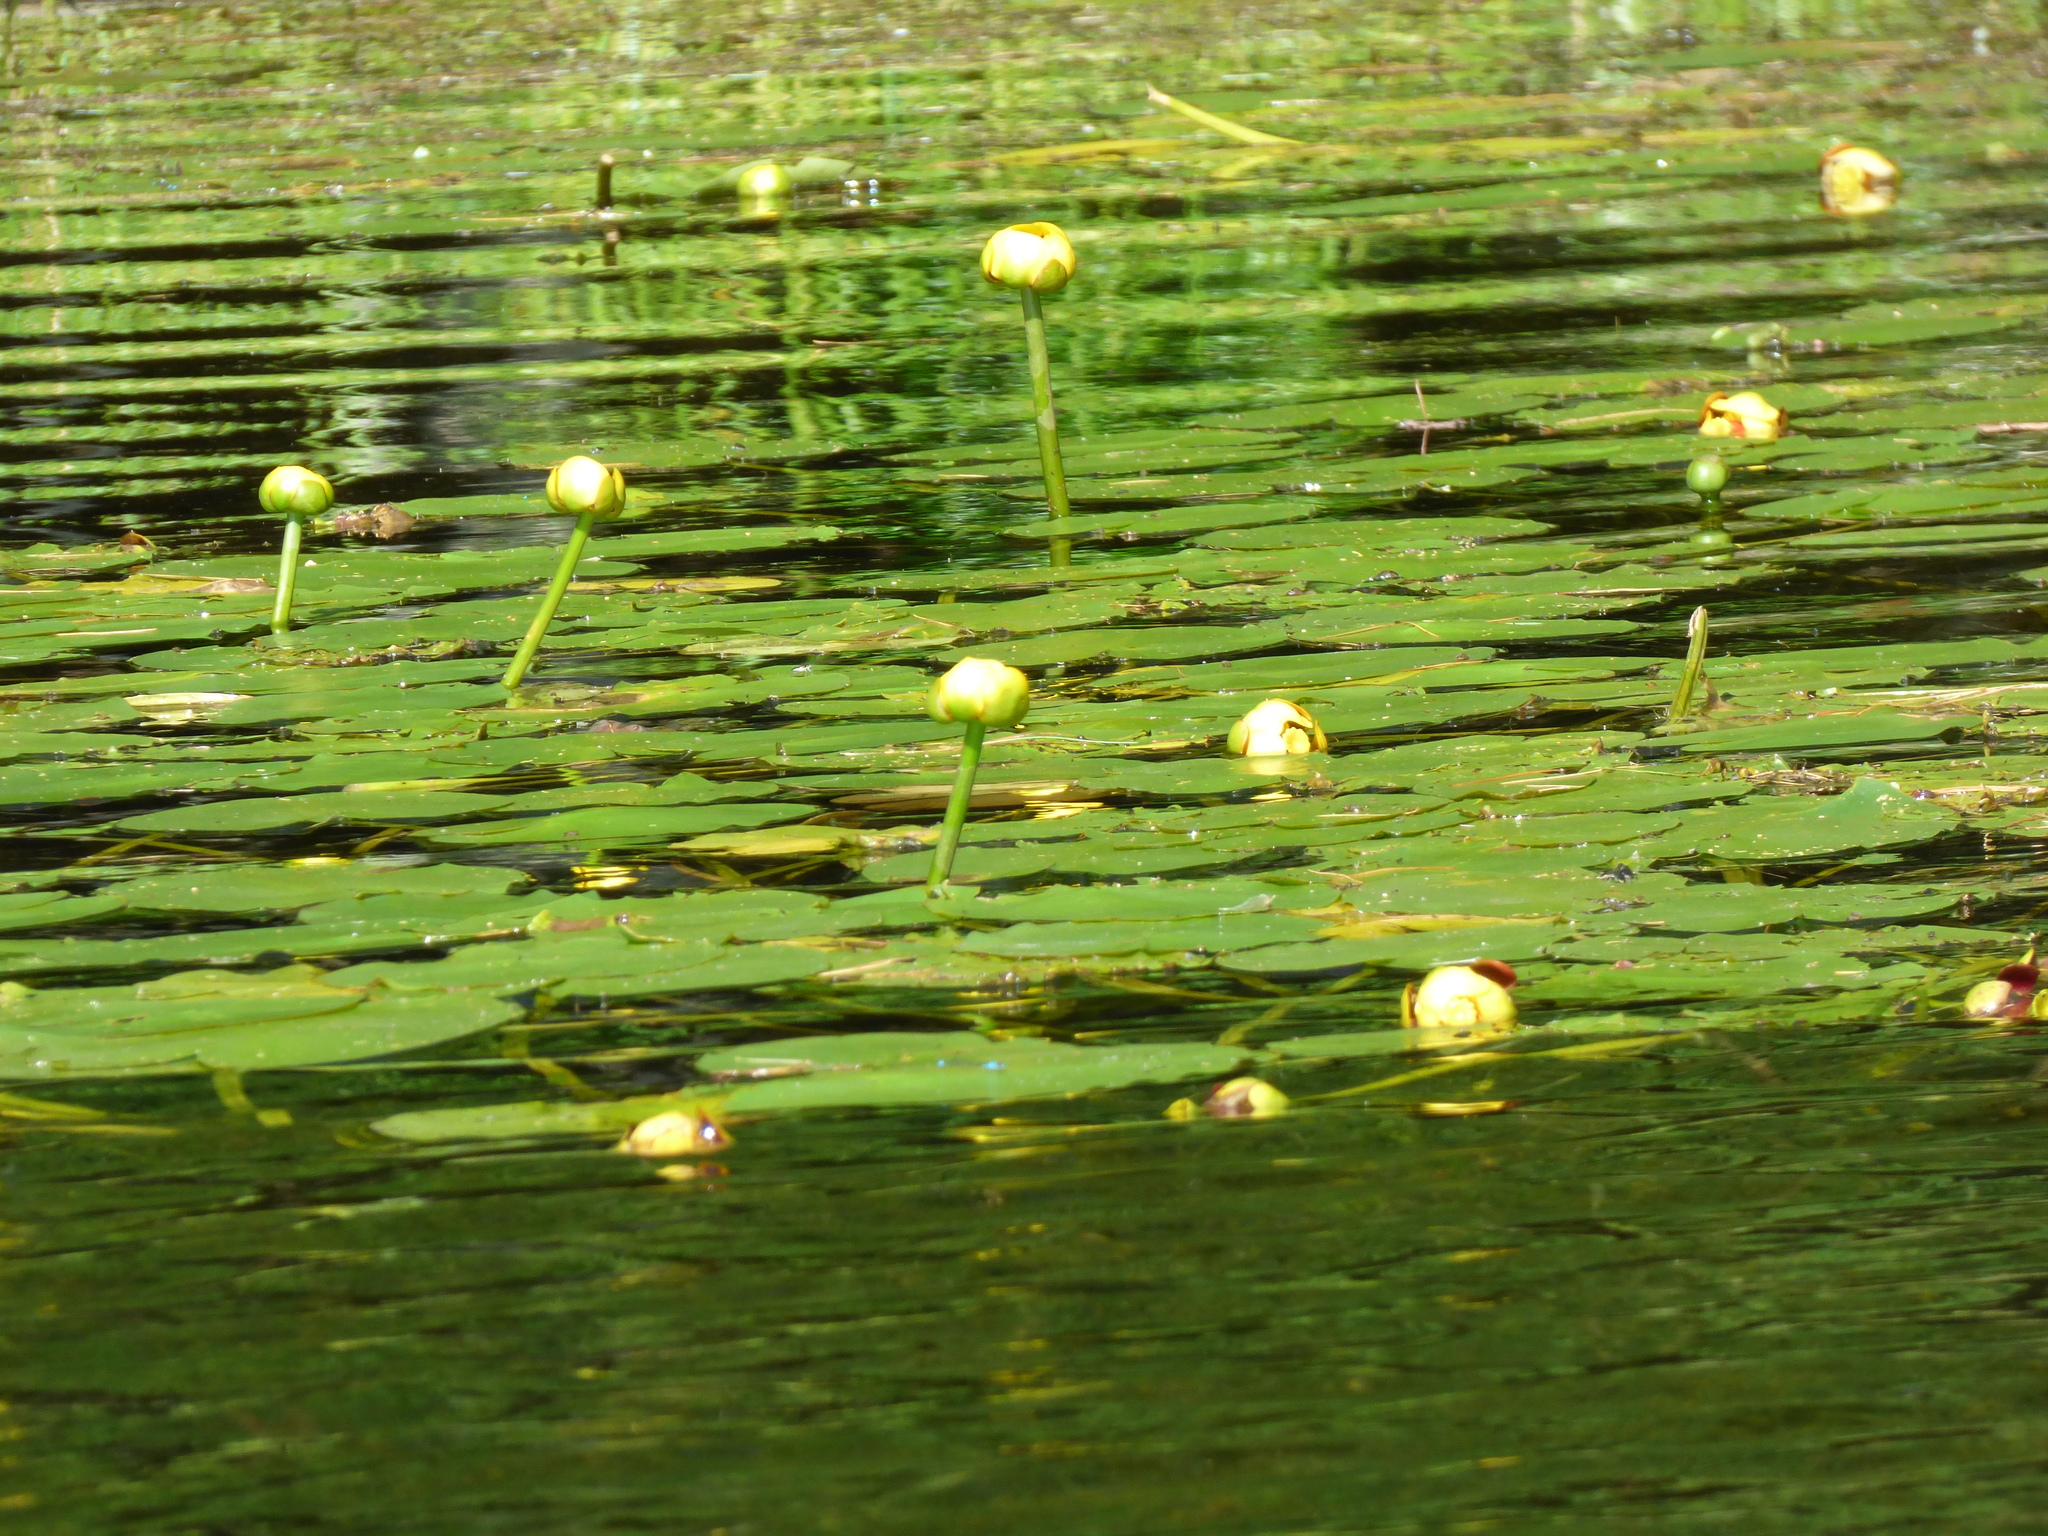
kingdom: Plantae
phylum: Tracheophyta
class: Magnoliopsida
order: Nymphaeales
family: Nymphaeaceae
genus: Nuphar
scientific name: Nuphar variegata
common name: Beaver-root
